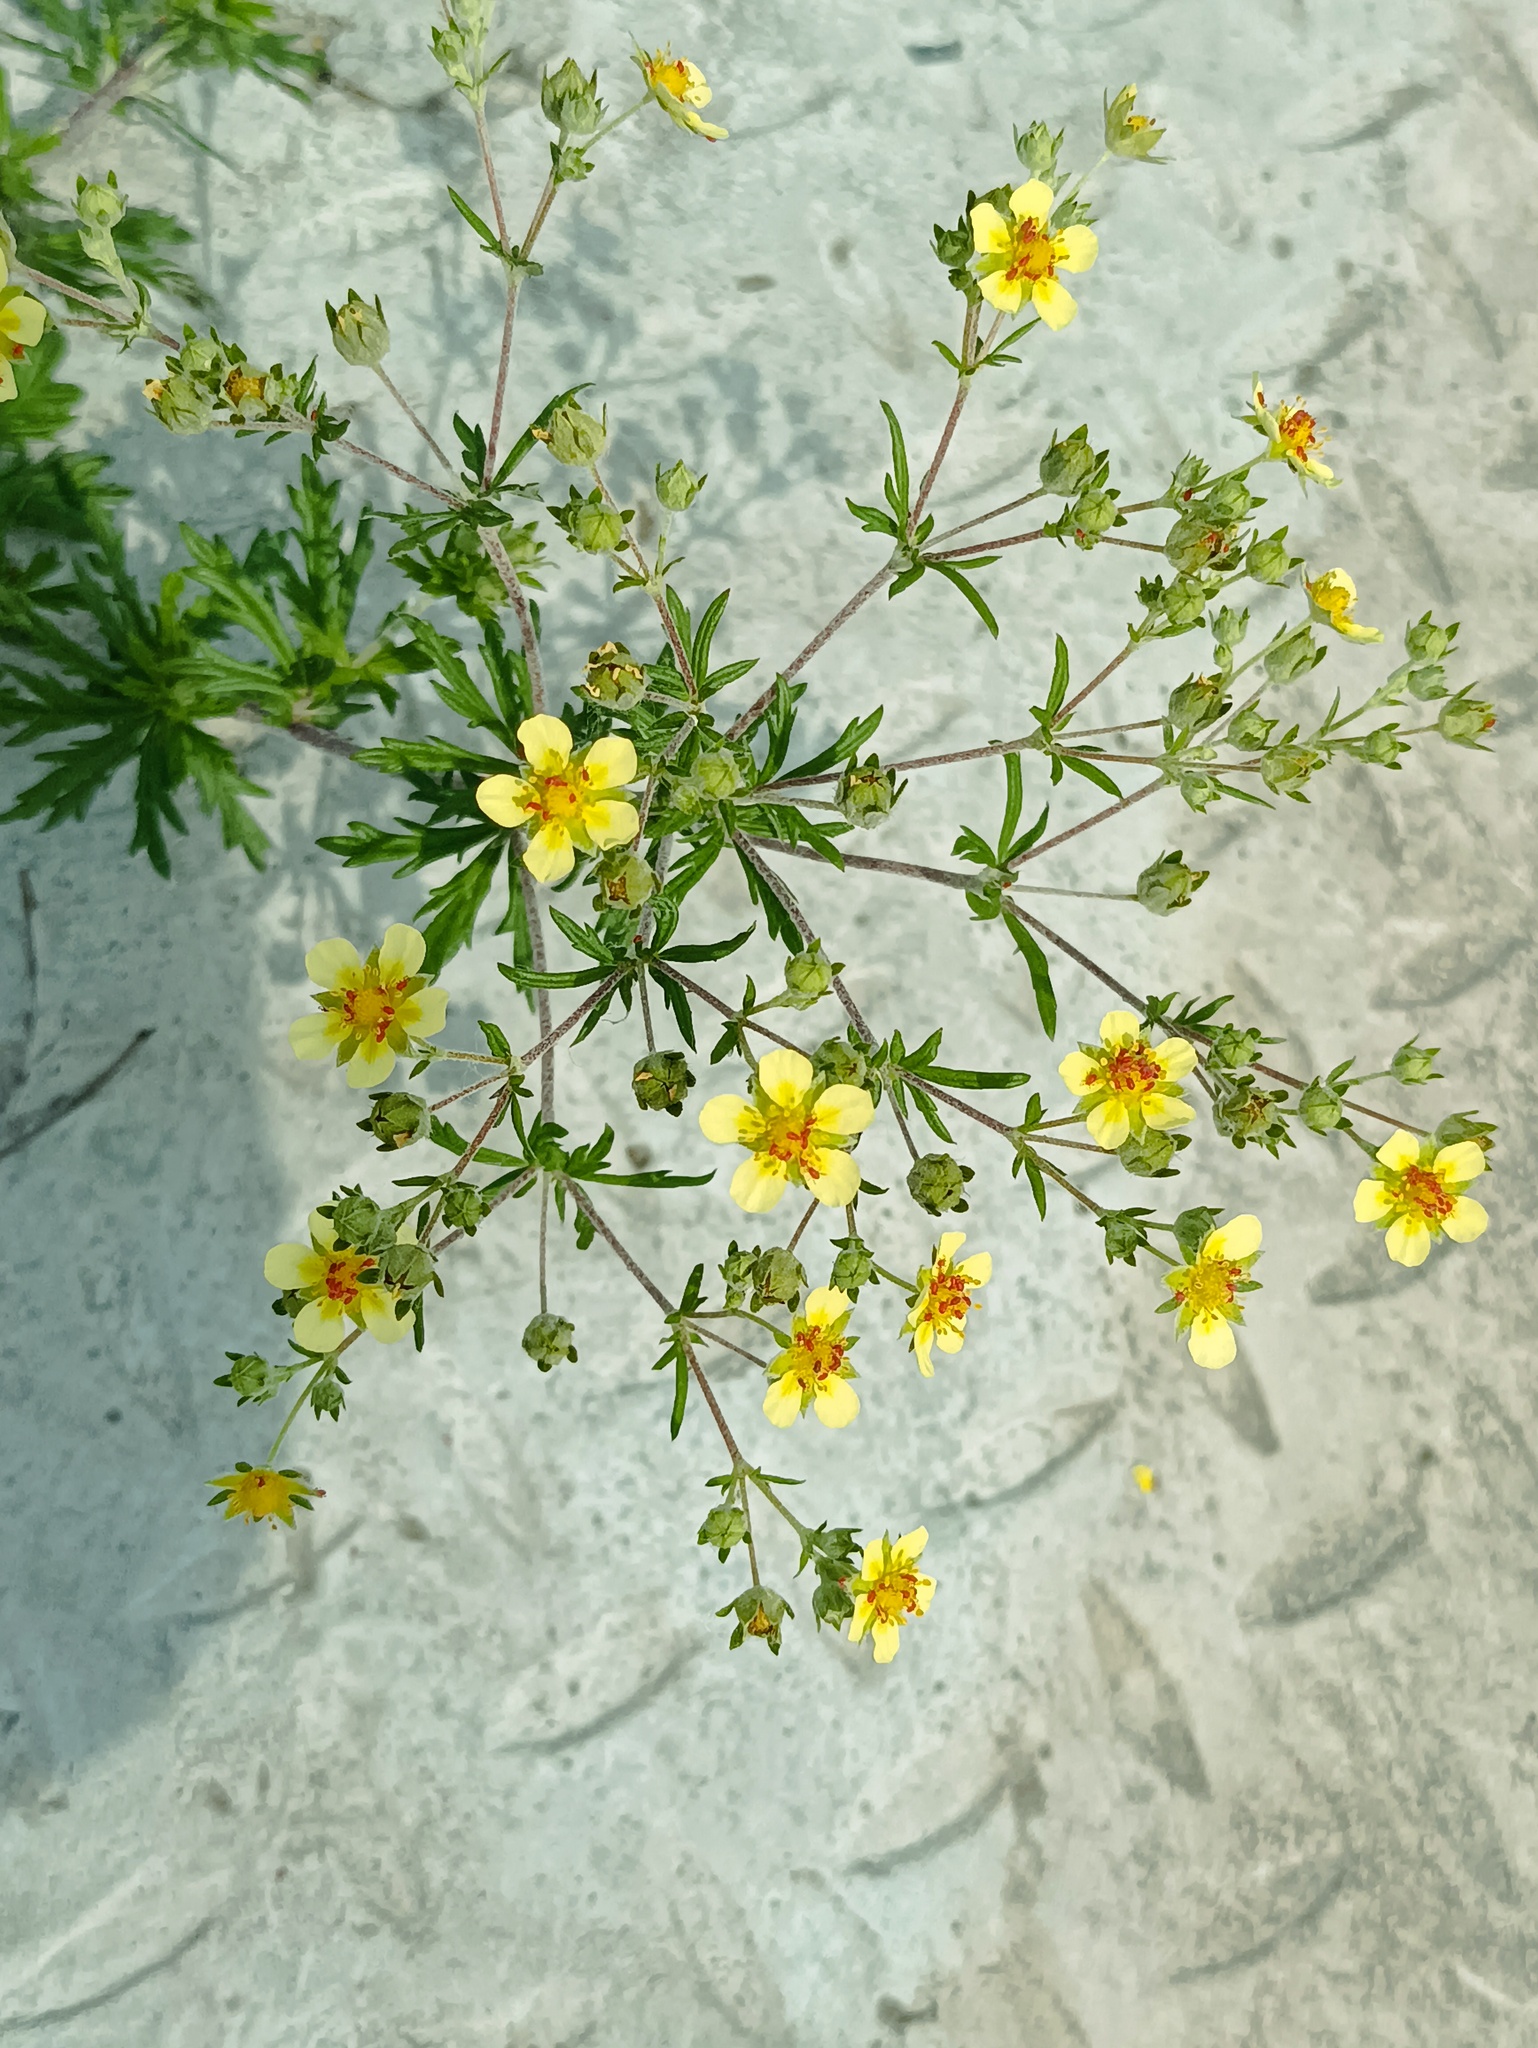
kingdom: Plantae
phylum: Tracheophyta
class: Magnoliopsida
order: Rosales
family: Rosaceae
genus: Potentilla
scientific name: Potentilla argentea
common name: Hoary cinquefoil
